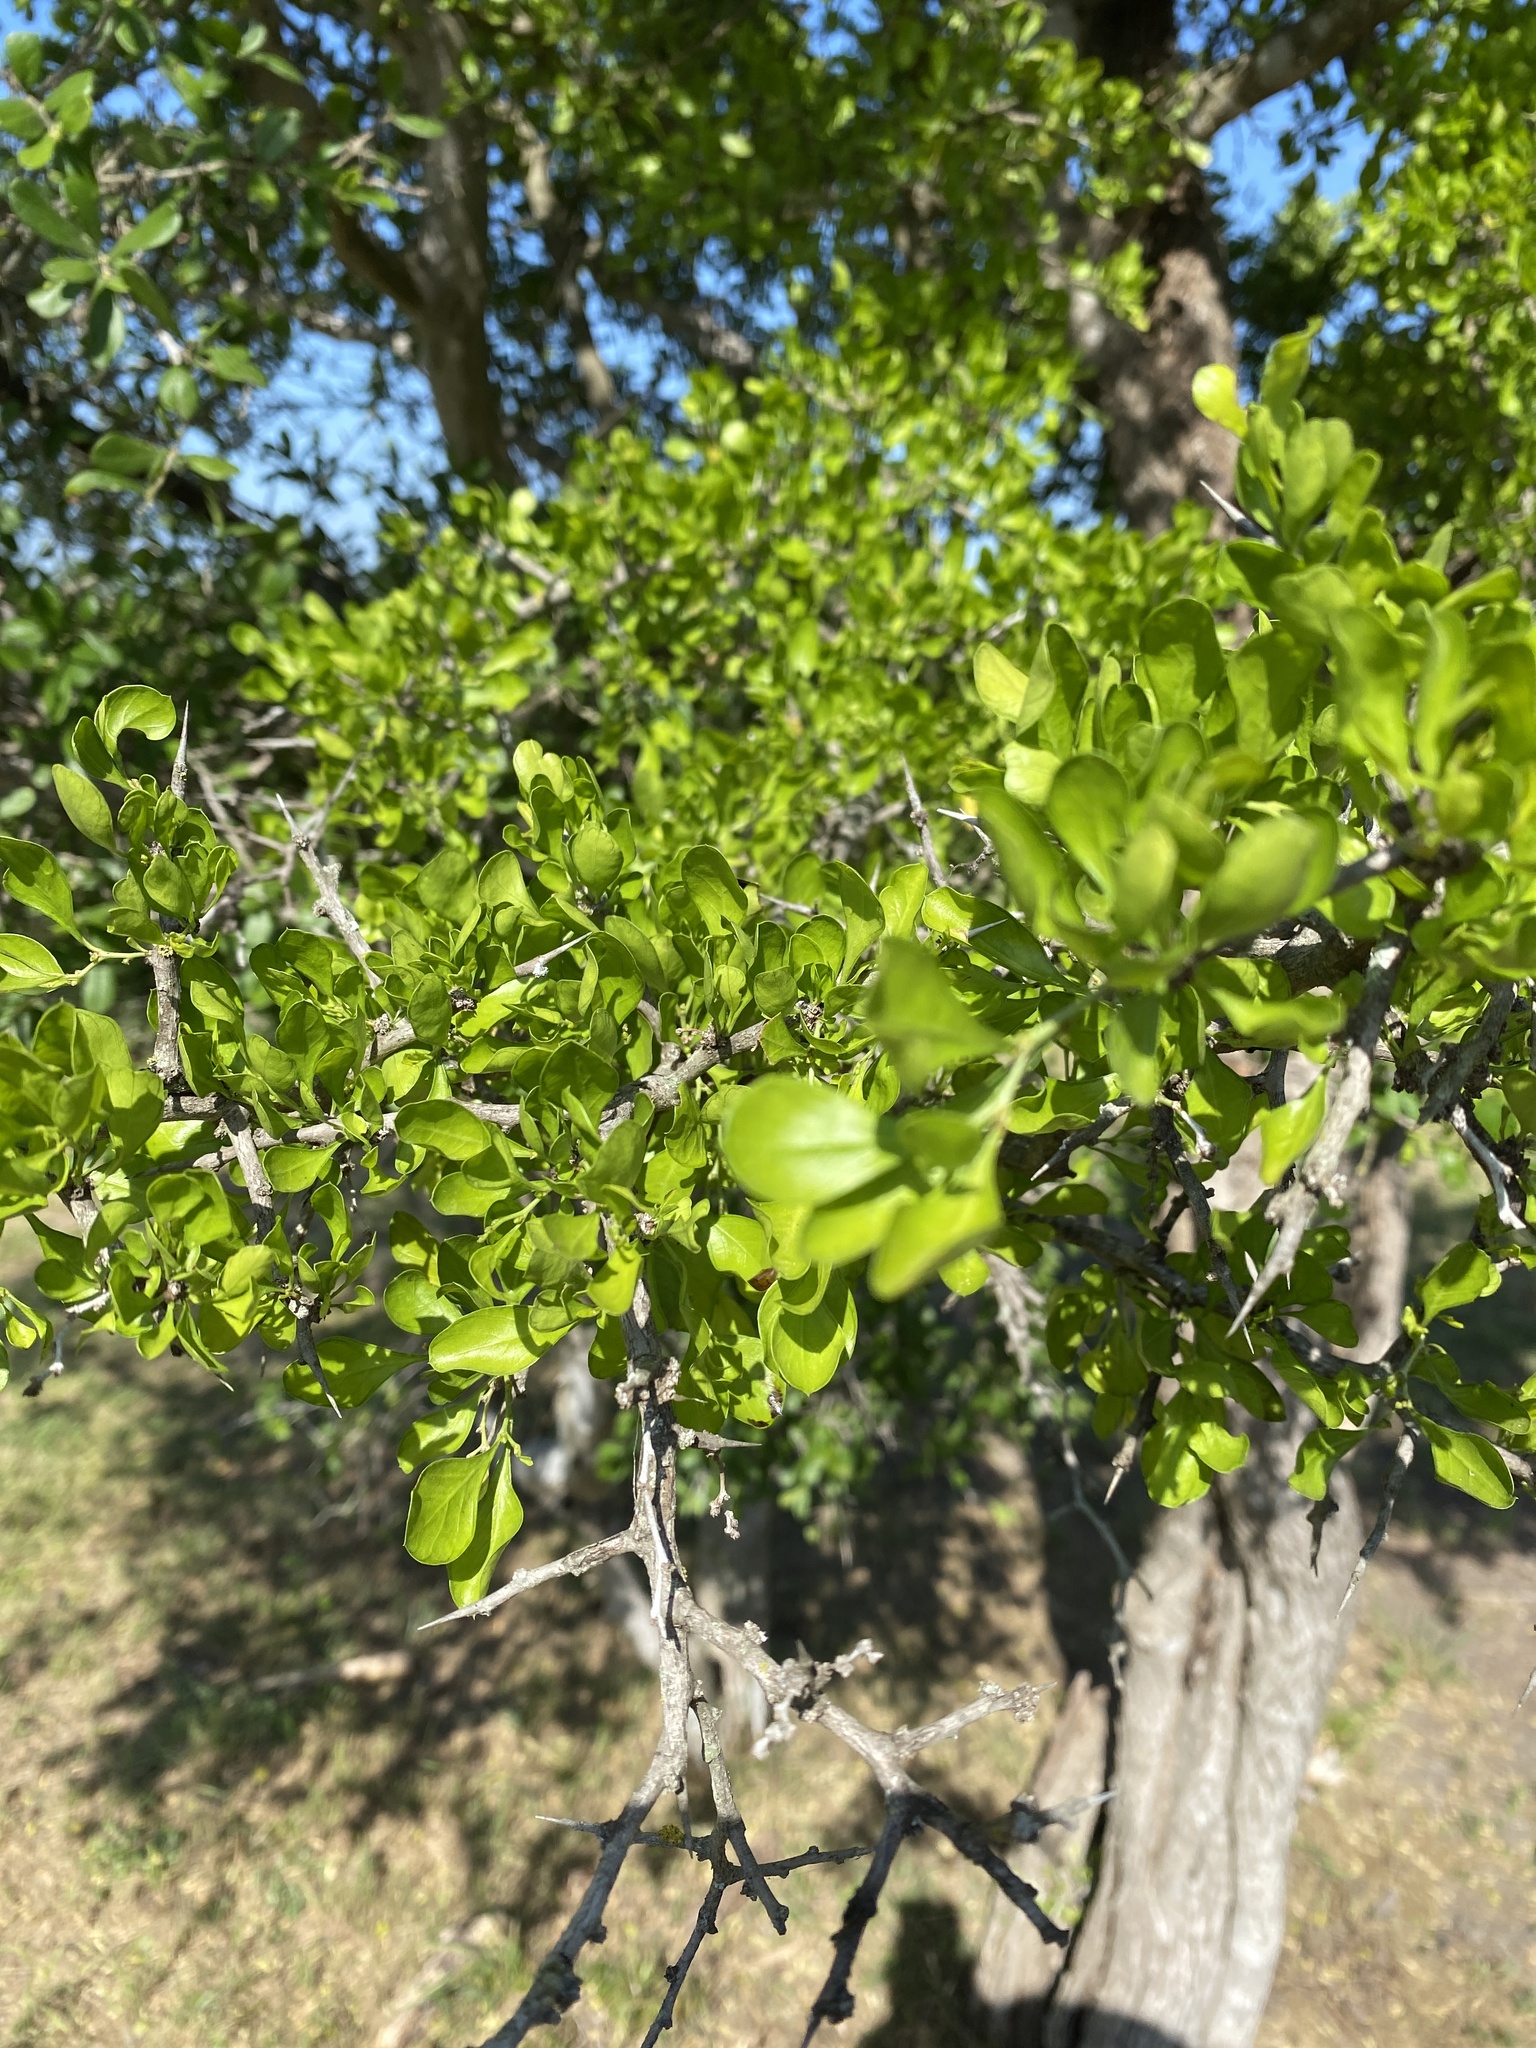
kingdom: Plantae
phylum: Tracheophyta
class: Magnoliopsida
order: Rosales
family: Rhamnaceae
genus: Condalia
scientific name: Condalia hookeri
